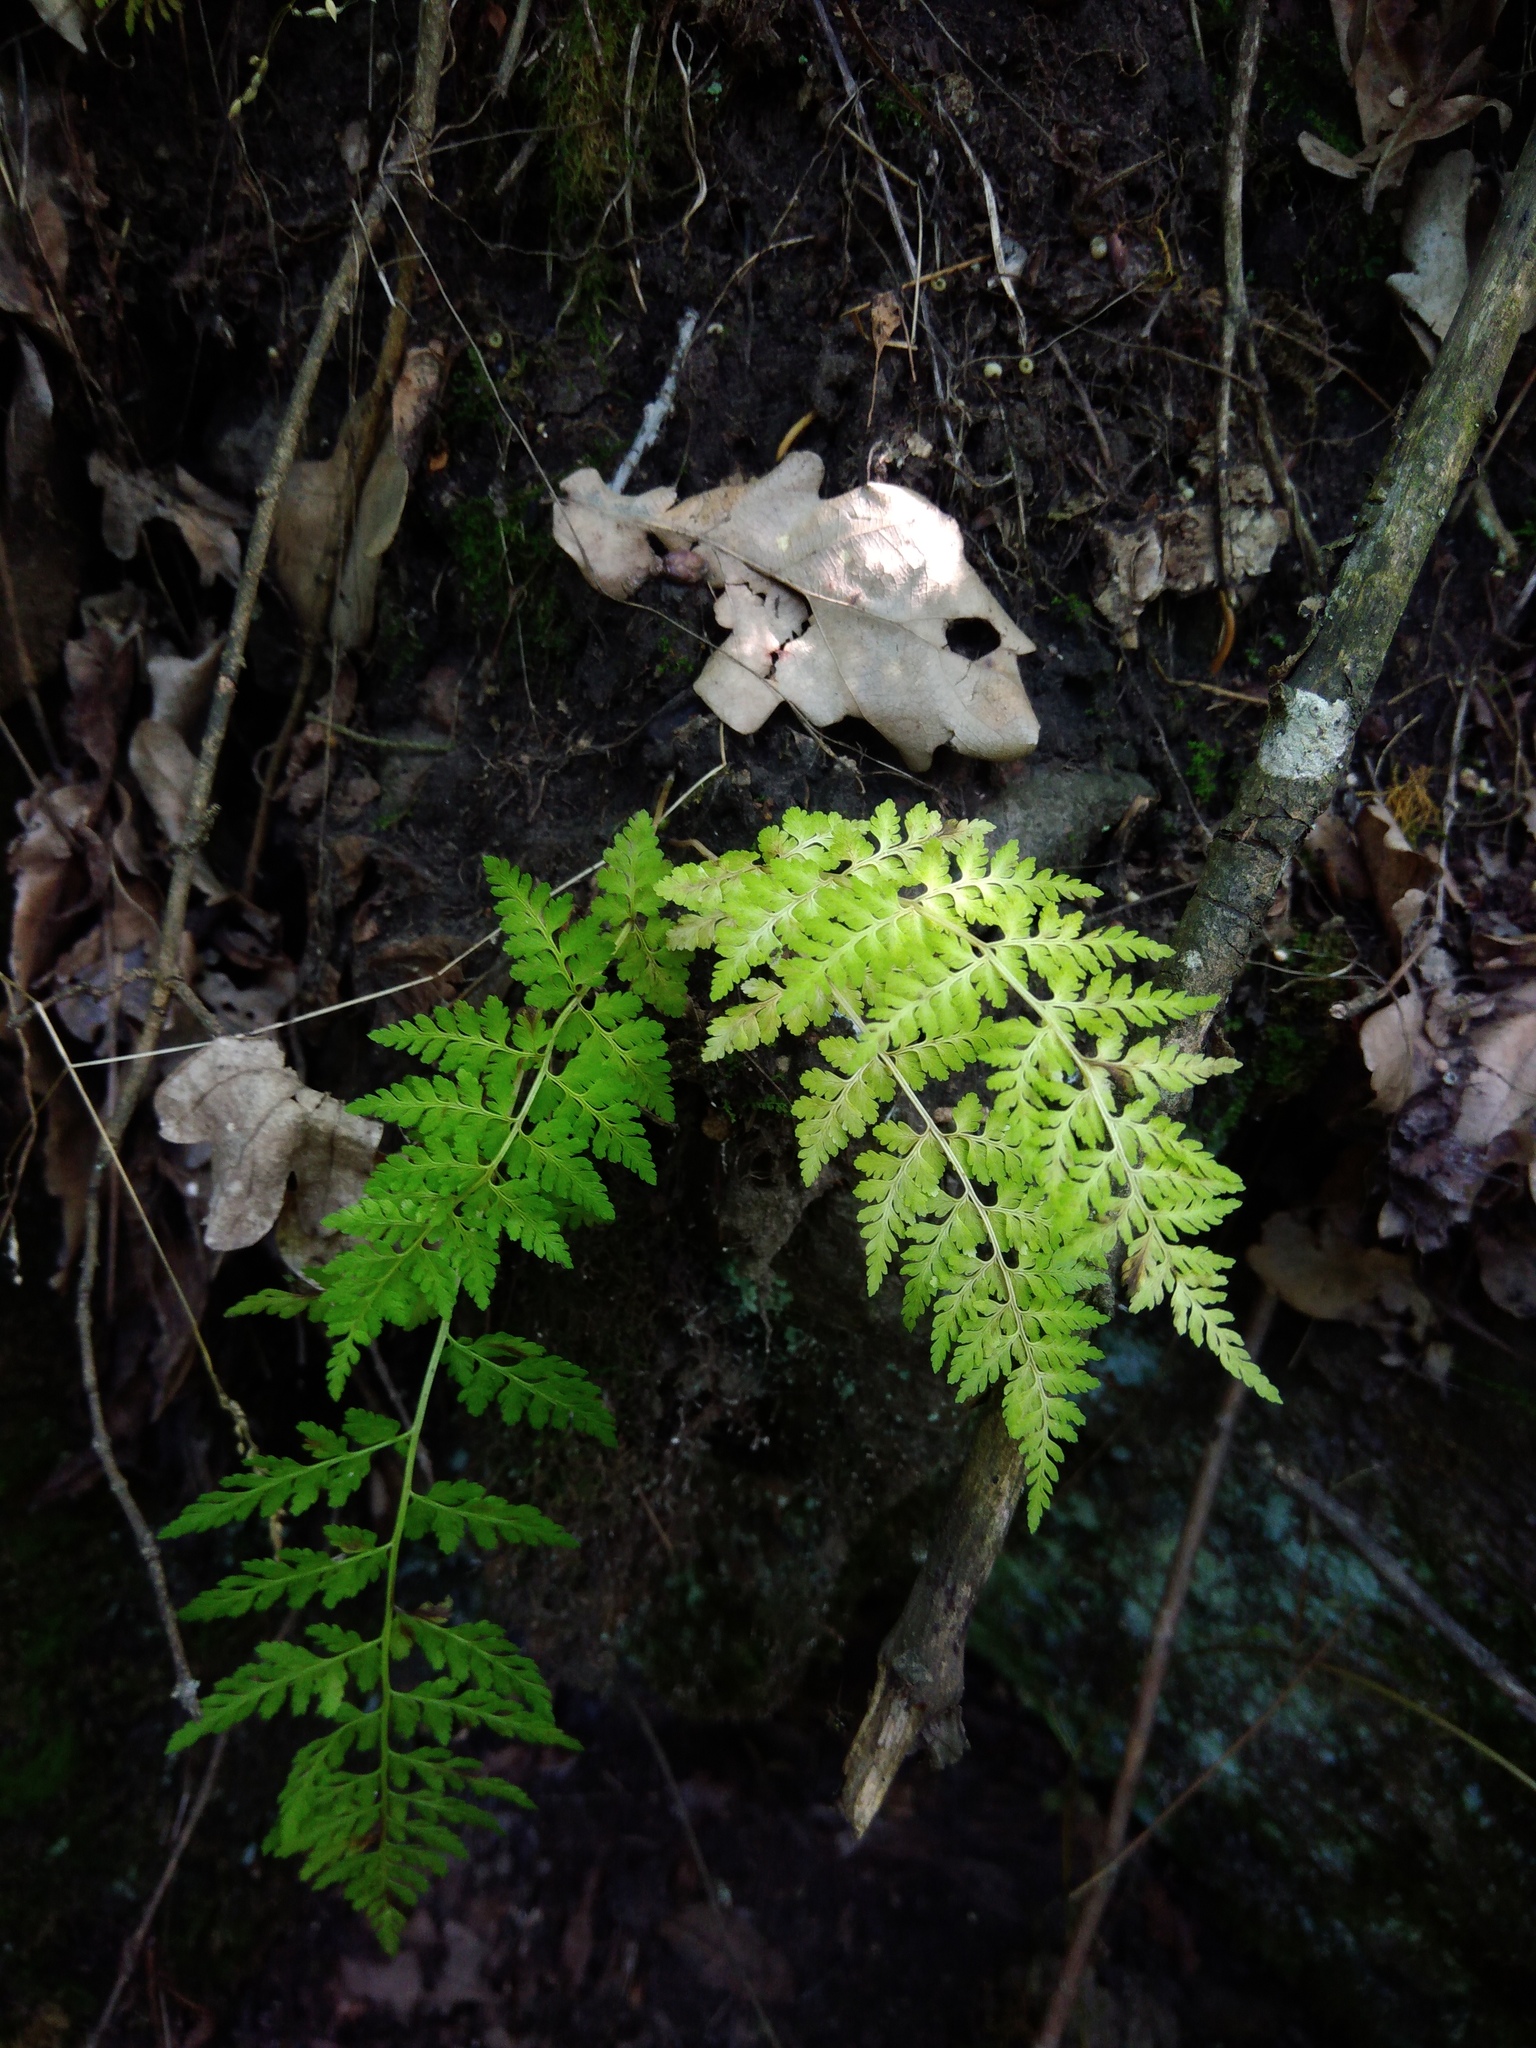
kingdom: Plantae
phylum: Tracheophyta
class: Polypodiopsida
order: Polypodiales
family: Cystopteridaceae
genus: Cystopteris
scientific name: Cystopteris fragilis
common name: Brittle bladder fern
